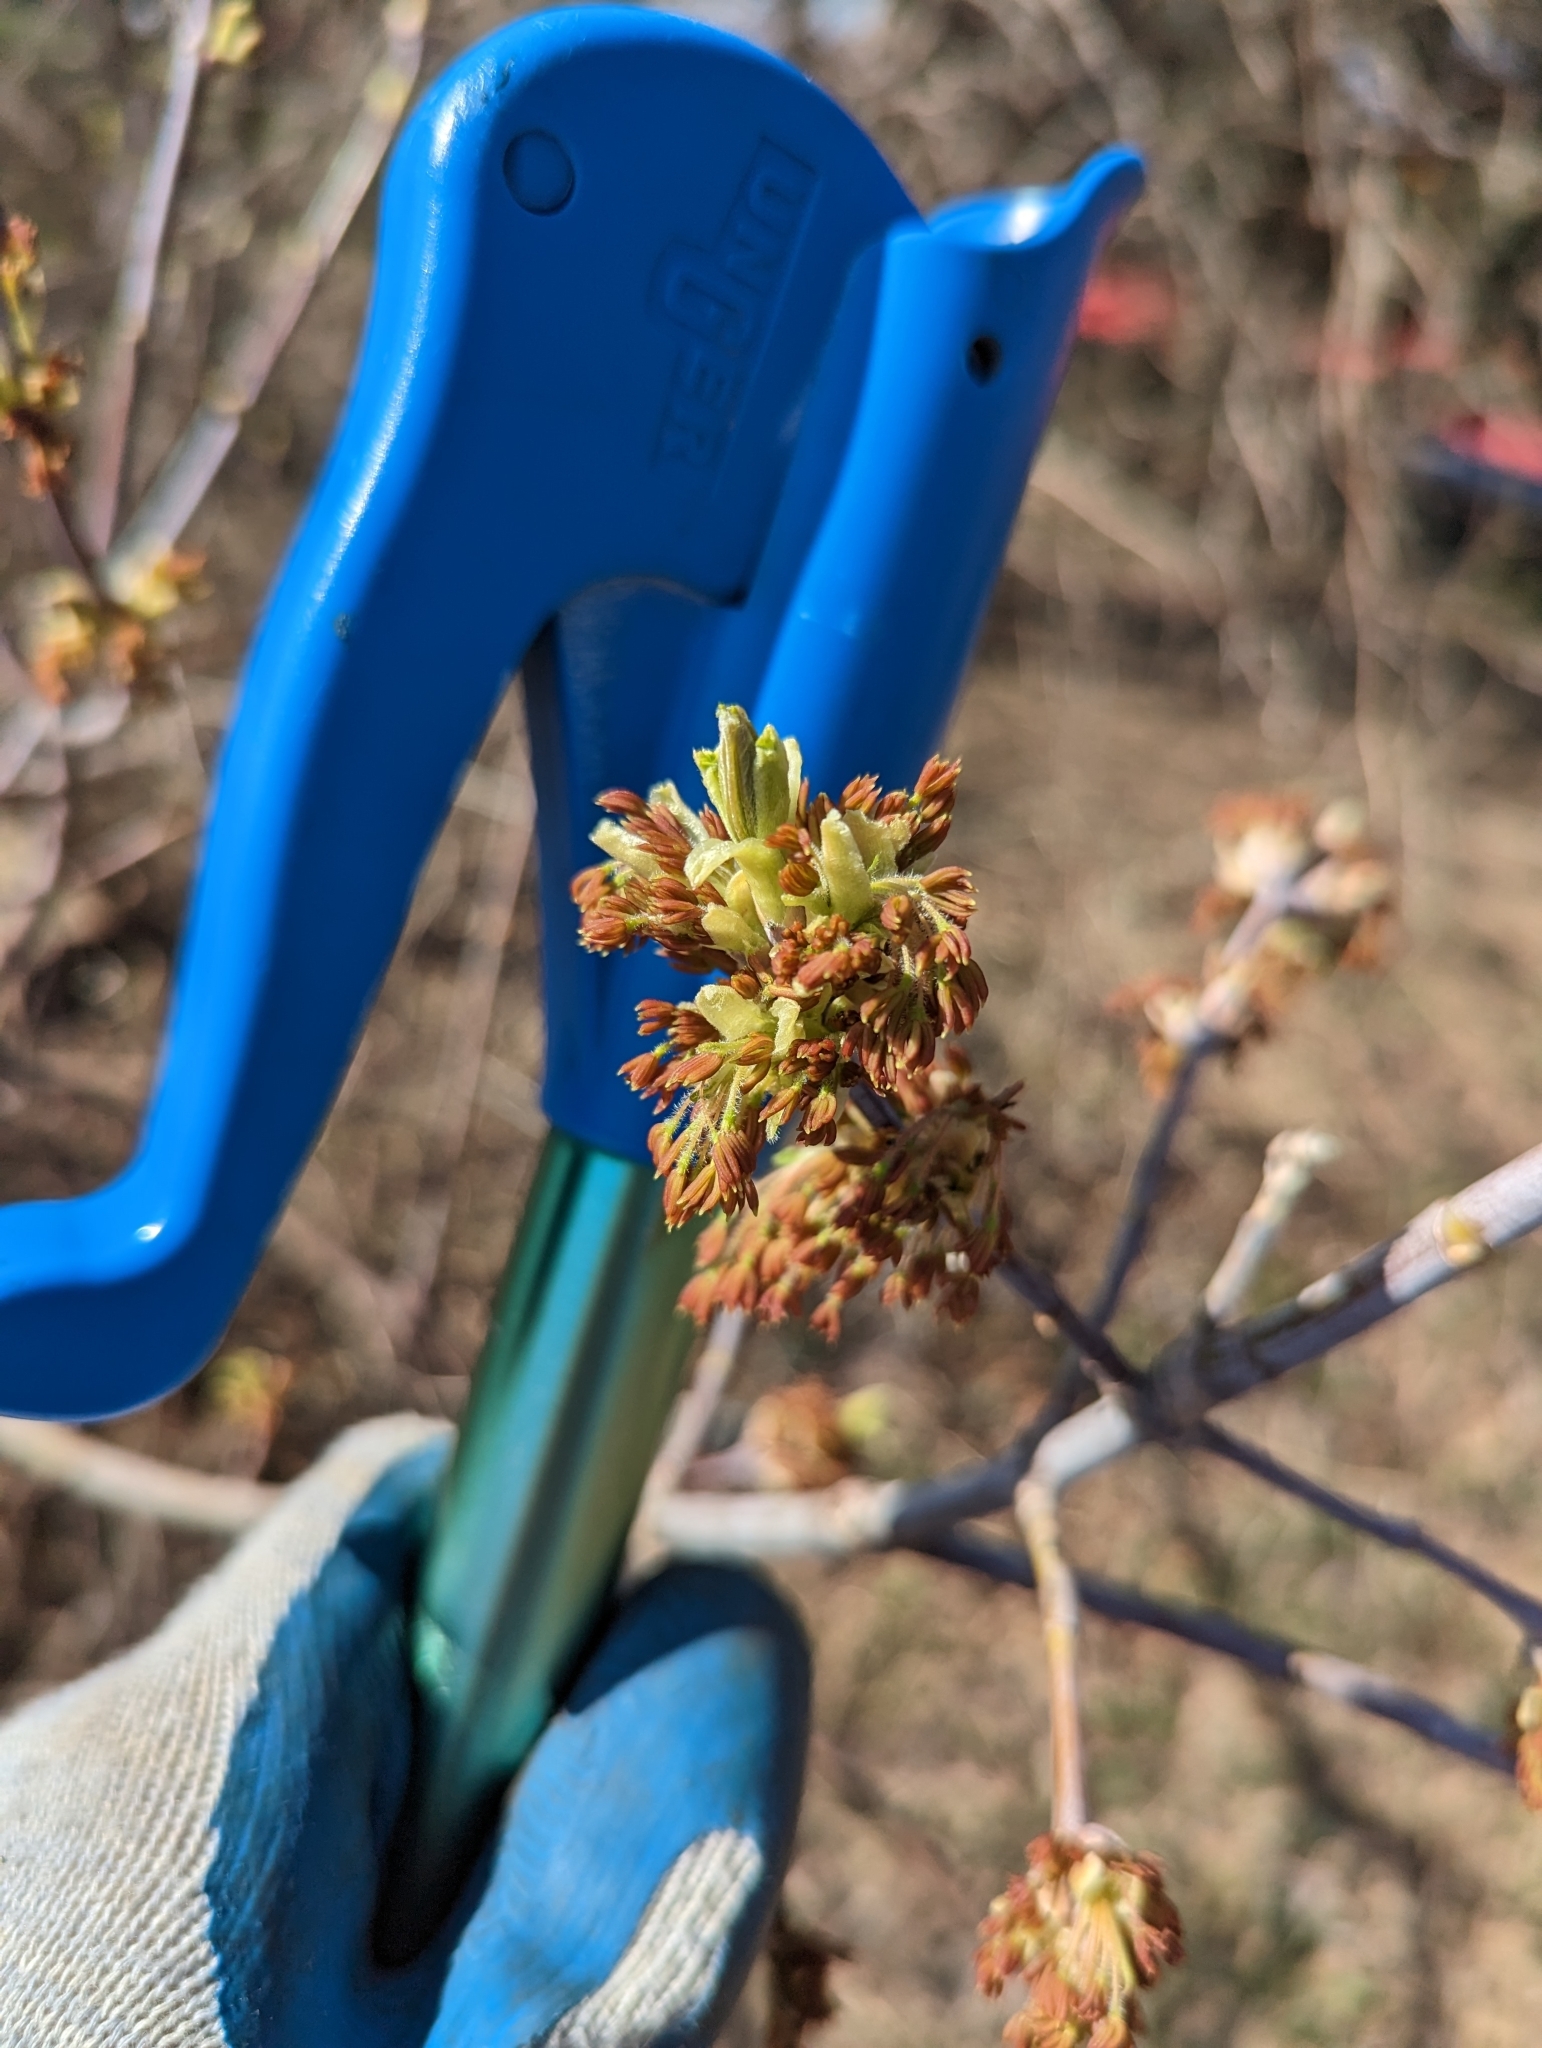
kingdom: Plantae
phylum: Tracheophyta
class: Magnoliopsida
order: Sapindales
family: Sapindaceae
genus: Acer
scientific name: Acer negundo
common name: Ashleaf maple
